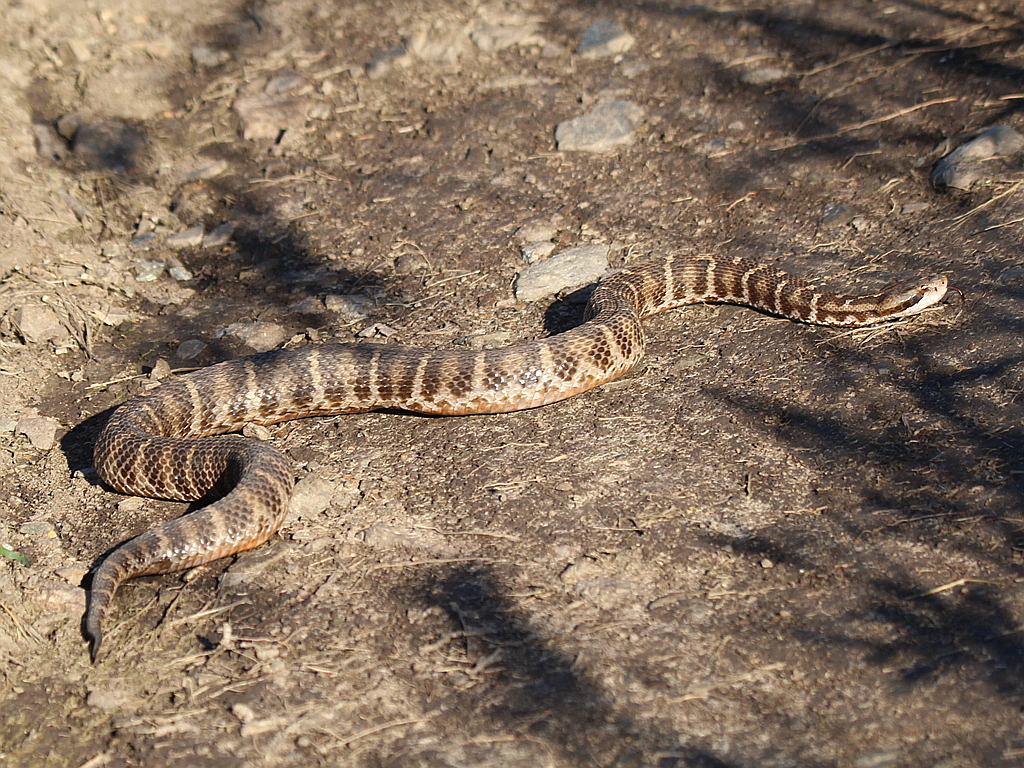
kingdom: Animalia
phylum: Chordata
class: Squamata
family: Viperidae
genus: Gloydius
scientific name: Gloydius intermedius
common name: Central asian pit viper
